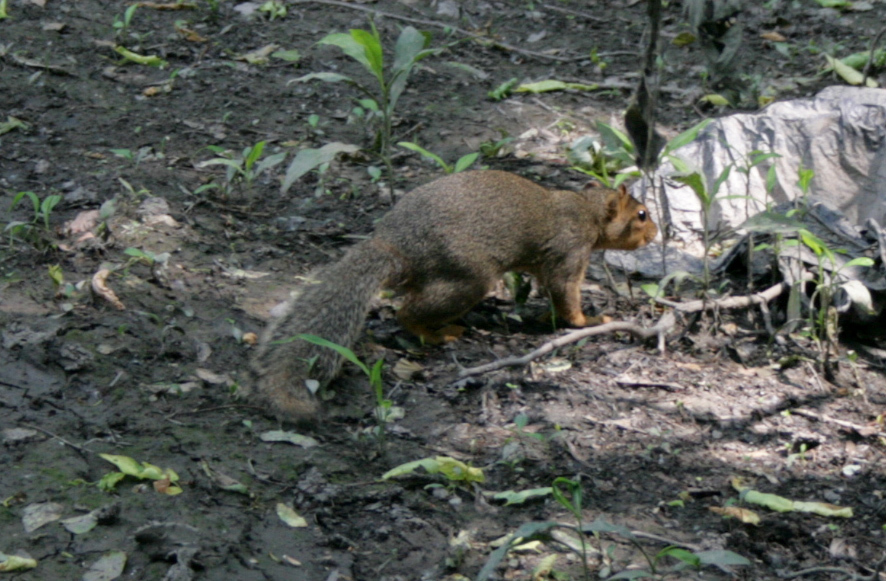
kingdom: Animalia
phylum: Chordata
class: Mammalia
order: Rodentia
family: Sciuridae
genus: Sciurus
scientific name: Sciurus carolinensis
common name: Eastern gray squirrel
